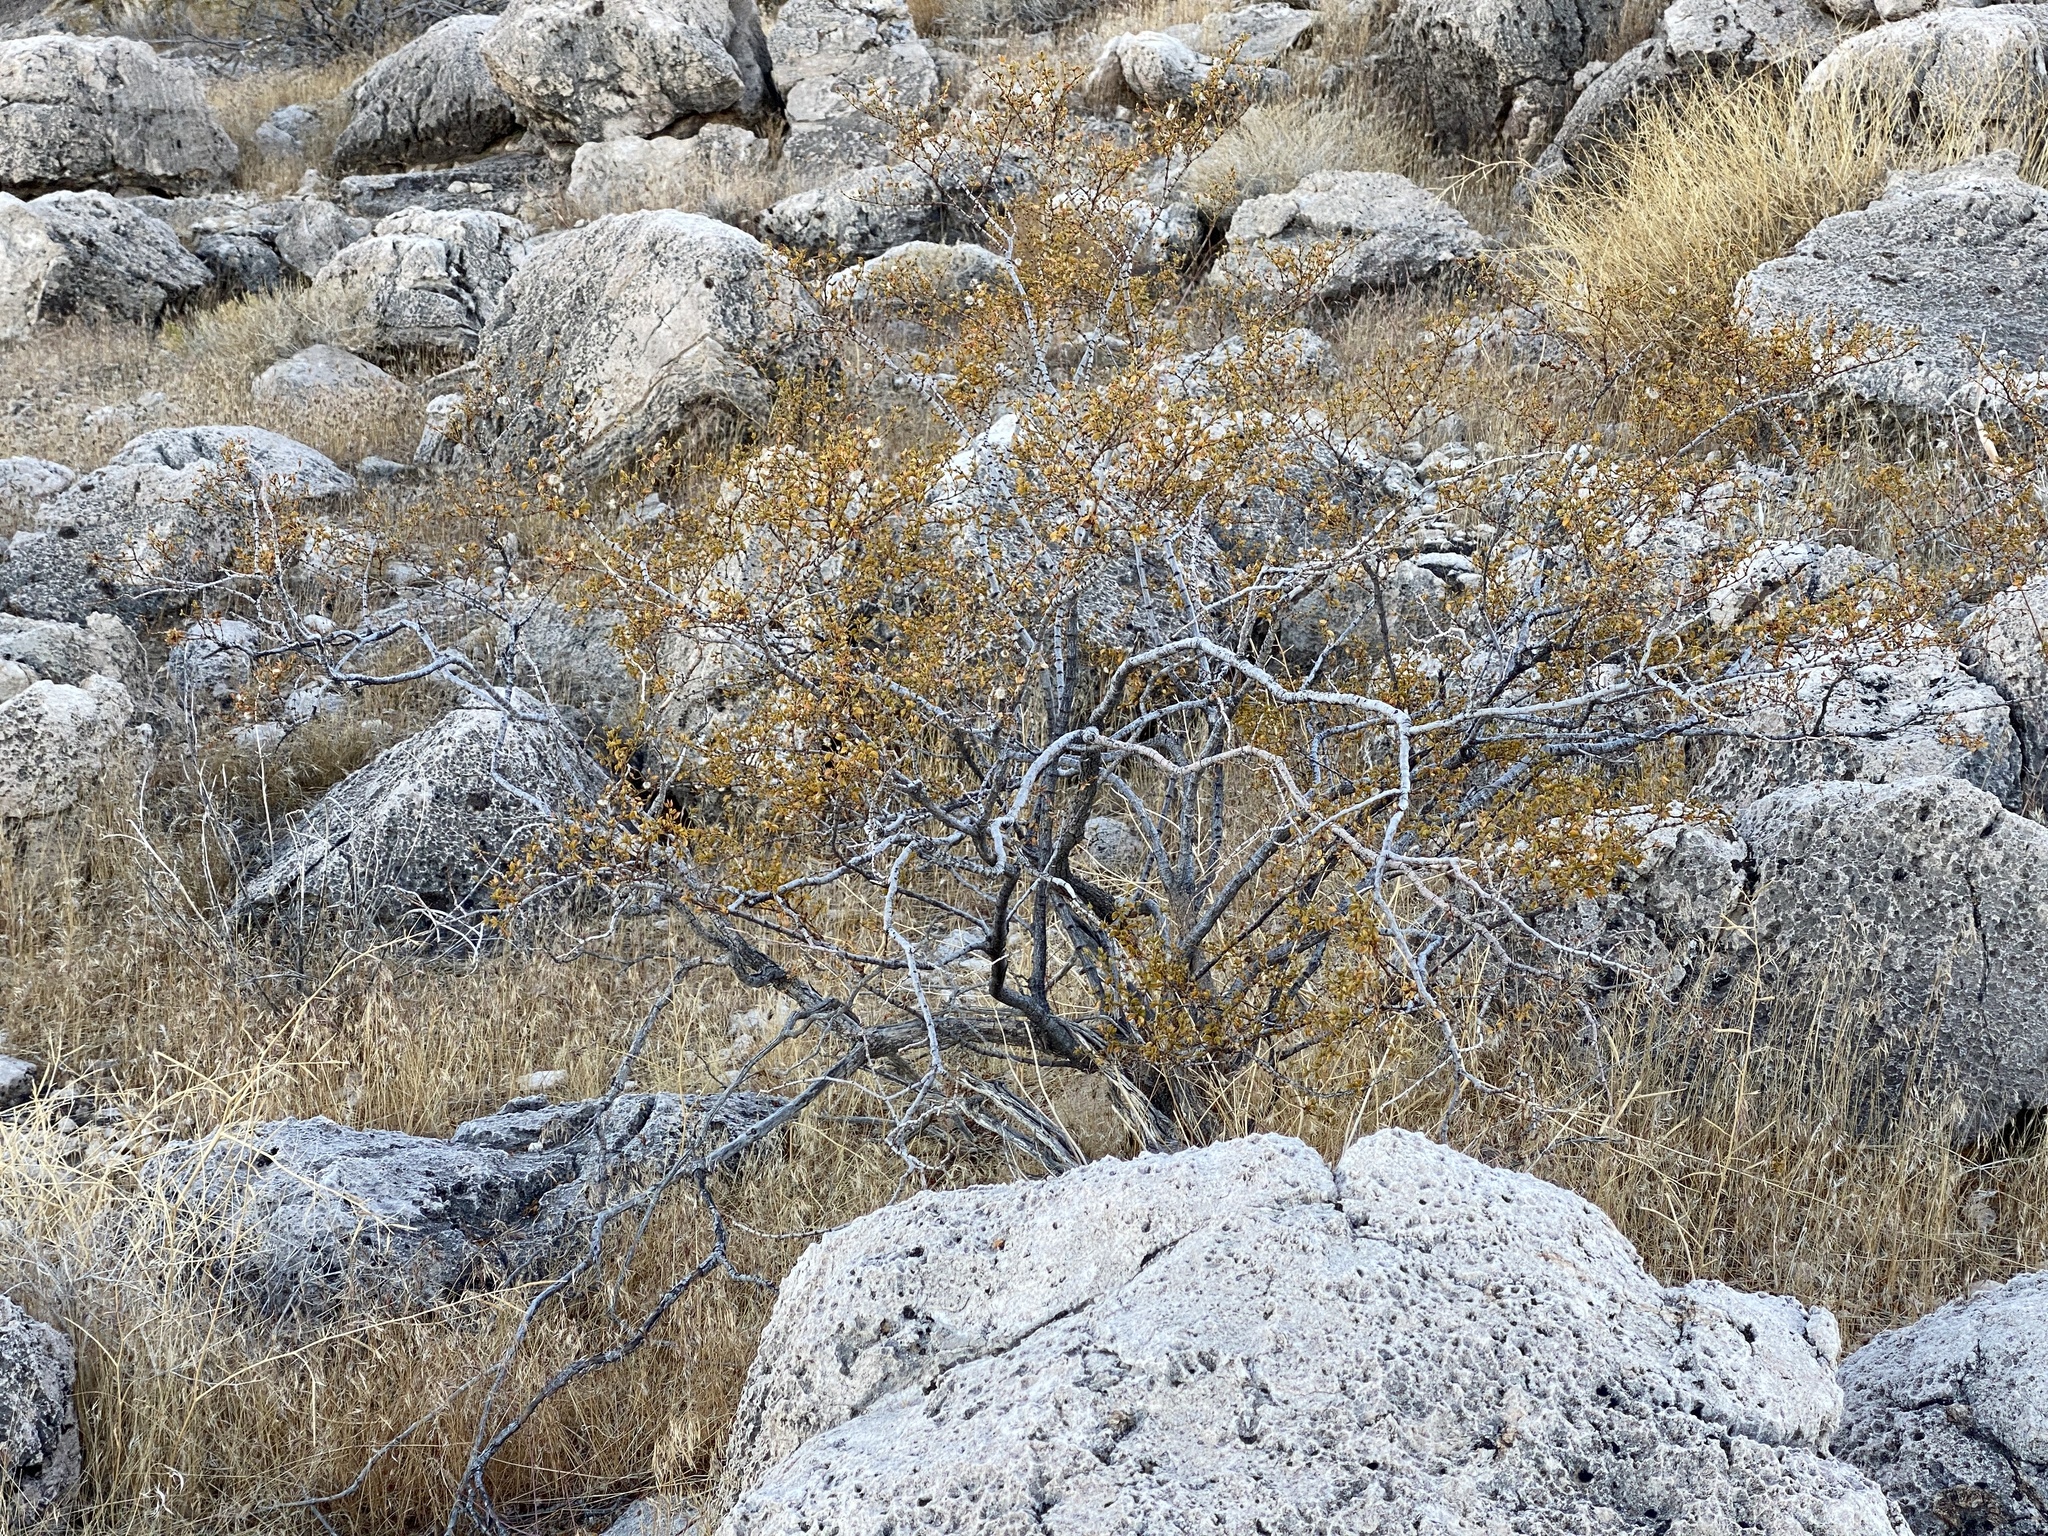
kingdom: Plantae
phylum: Tracheophyta
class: Magnoliopsida
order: Zygophyllales
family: Zygophyllaceae
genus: Larrea
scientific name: Larrea tridentata
